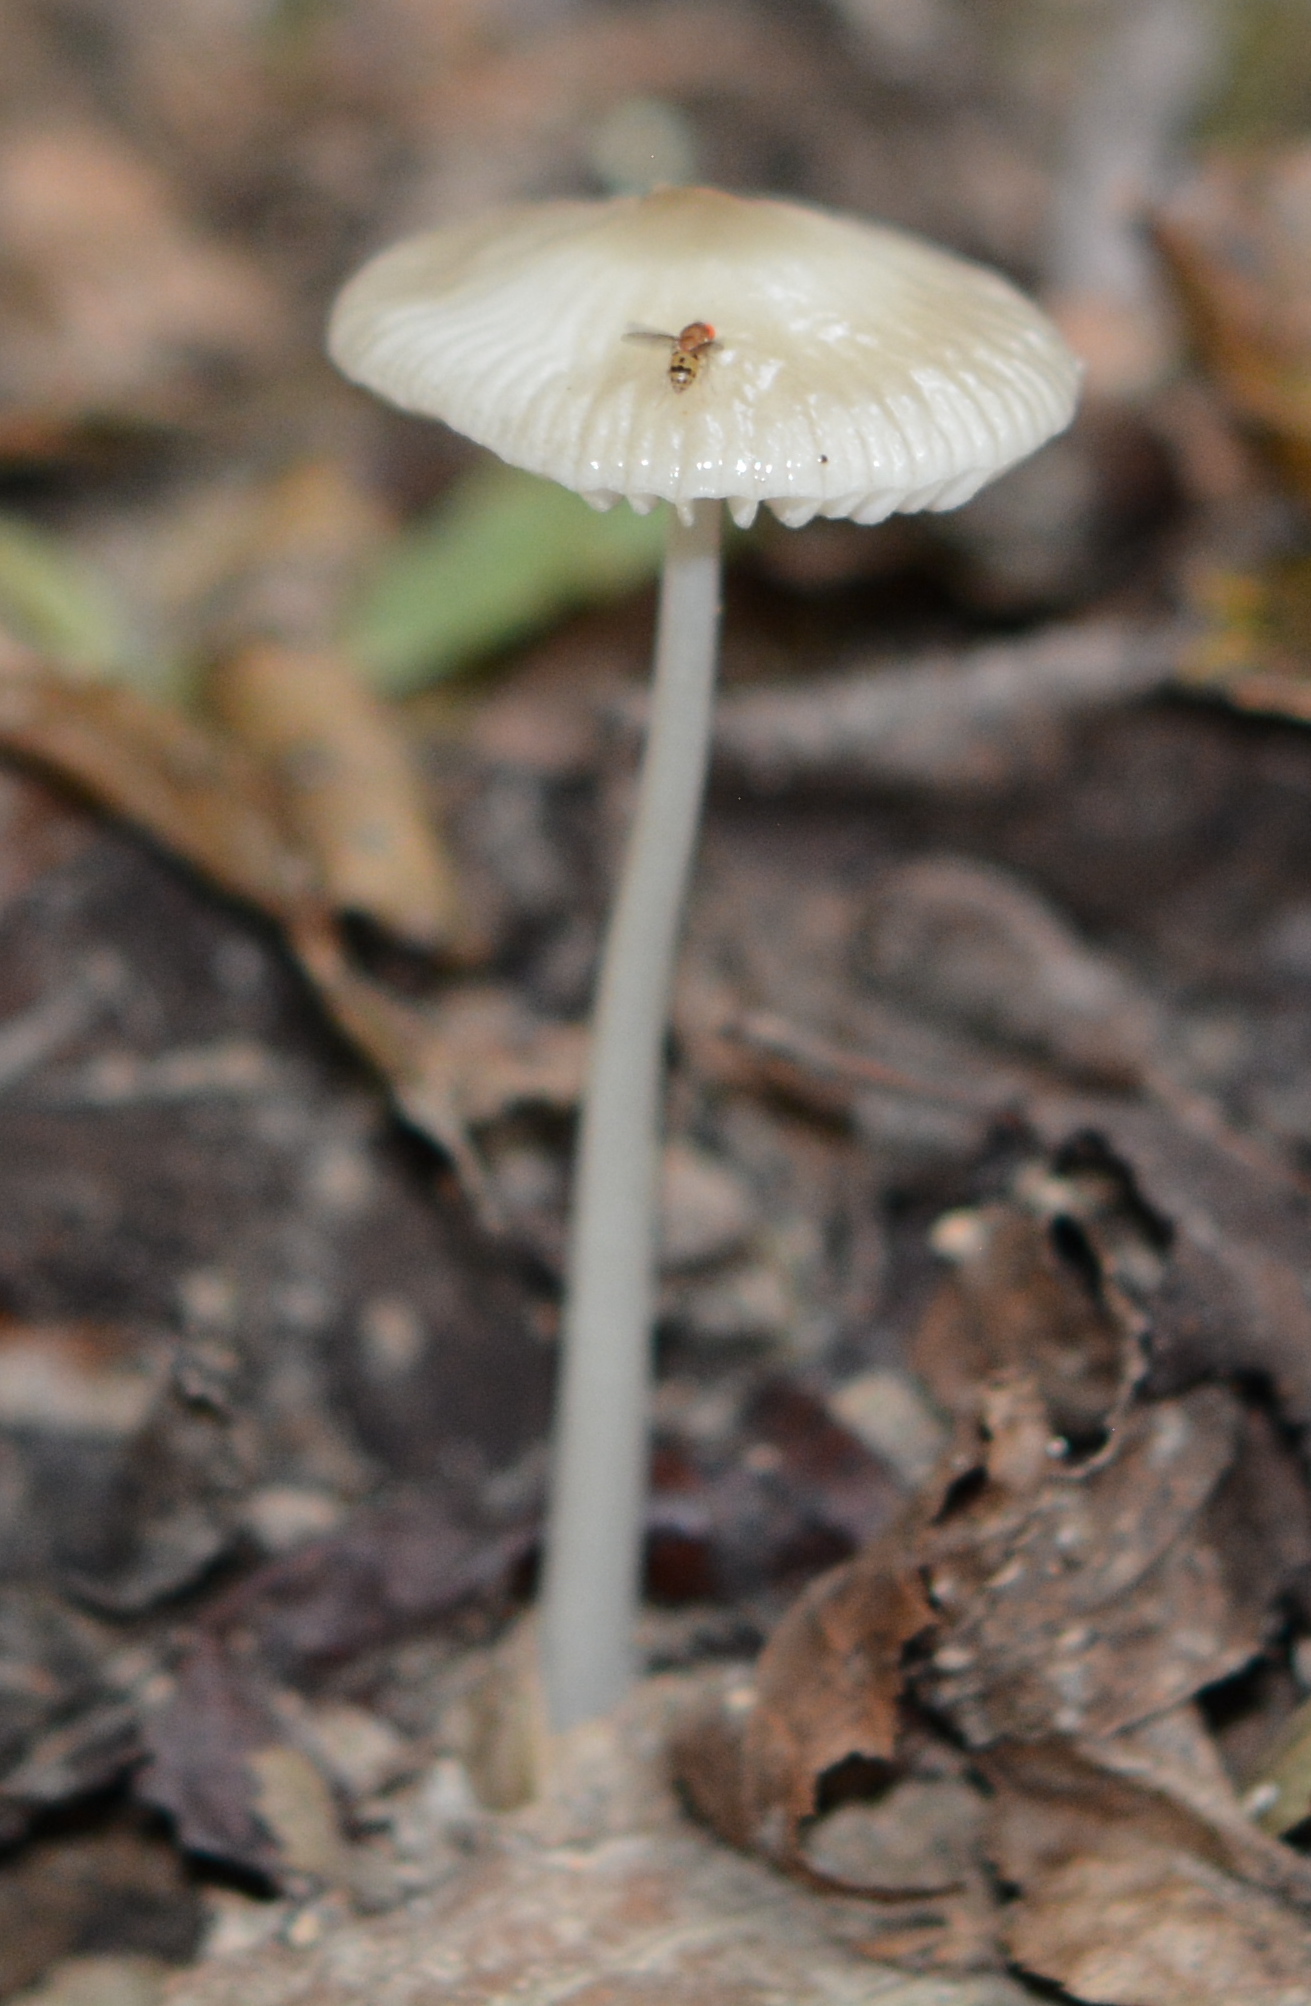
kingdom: Fungi
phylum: Basidiomycota
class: Agaricomycetes
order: Agaricales
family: Physalacriaceae
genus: Hymenopellis
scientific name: Hymenopellis limonispora
